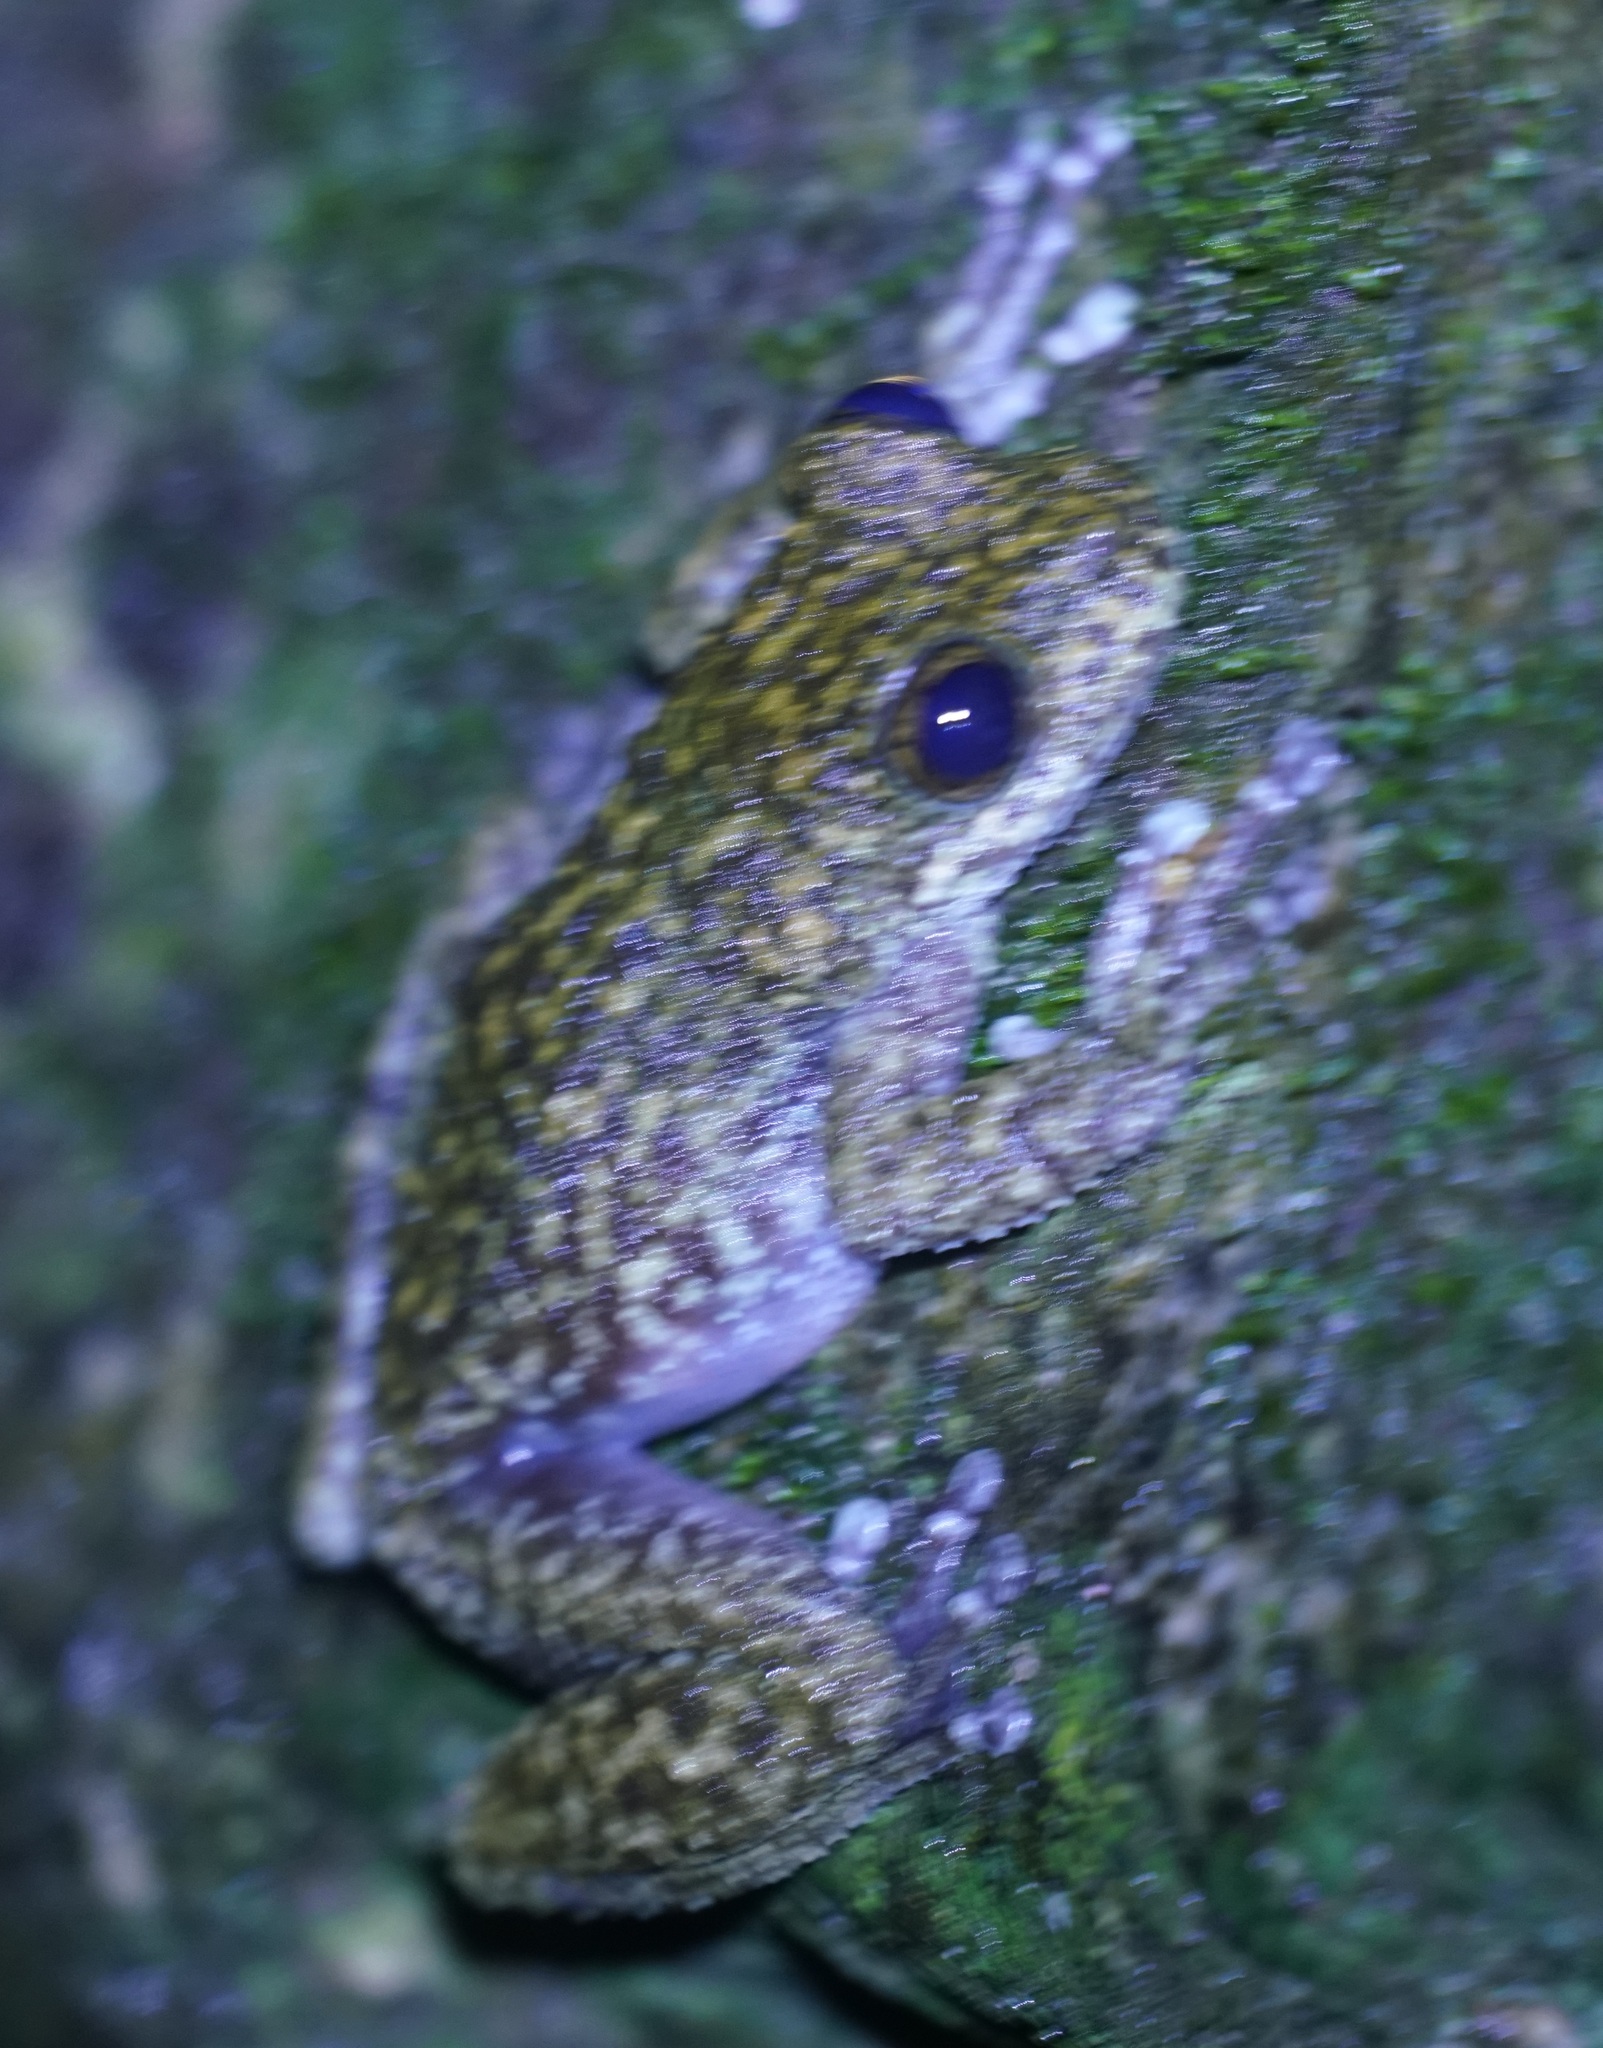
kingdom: Animalia
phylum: Chordata
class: Amphibia
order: Anura
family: Pelodryadidae
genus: Ranoidea
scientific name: Ranoidea nannotis
